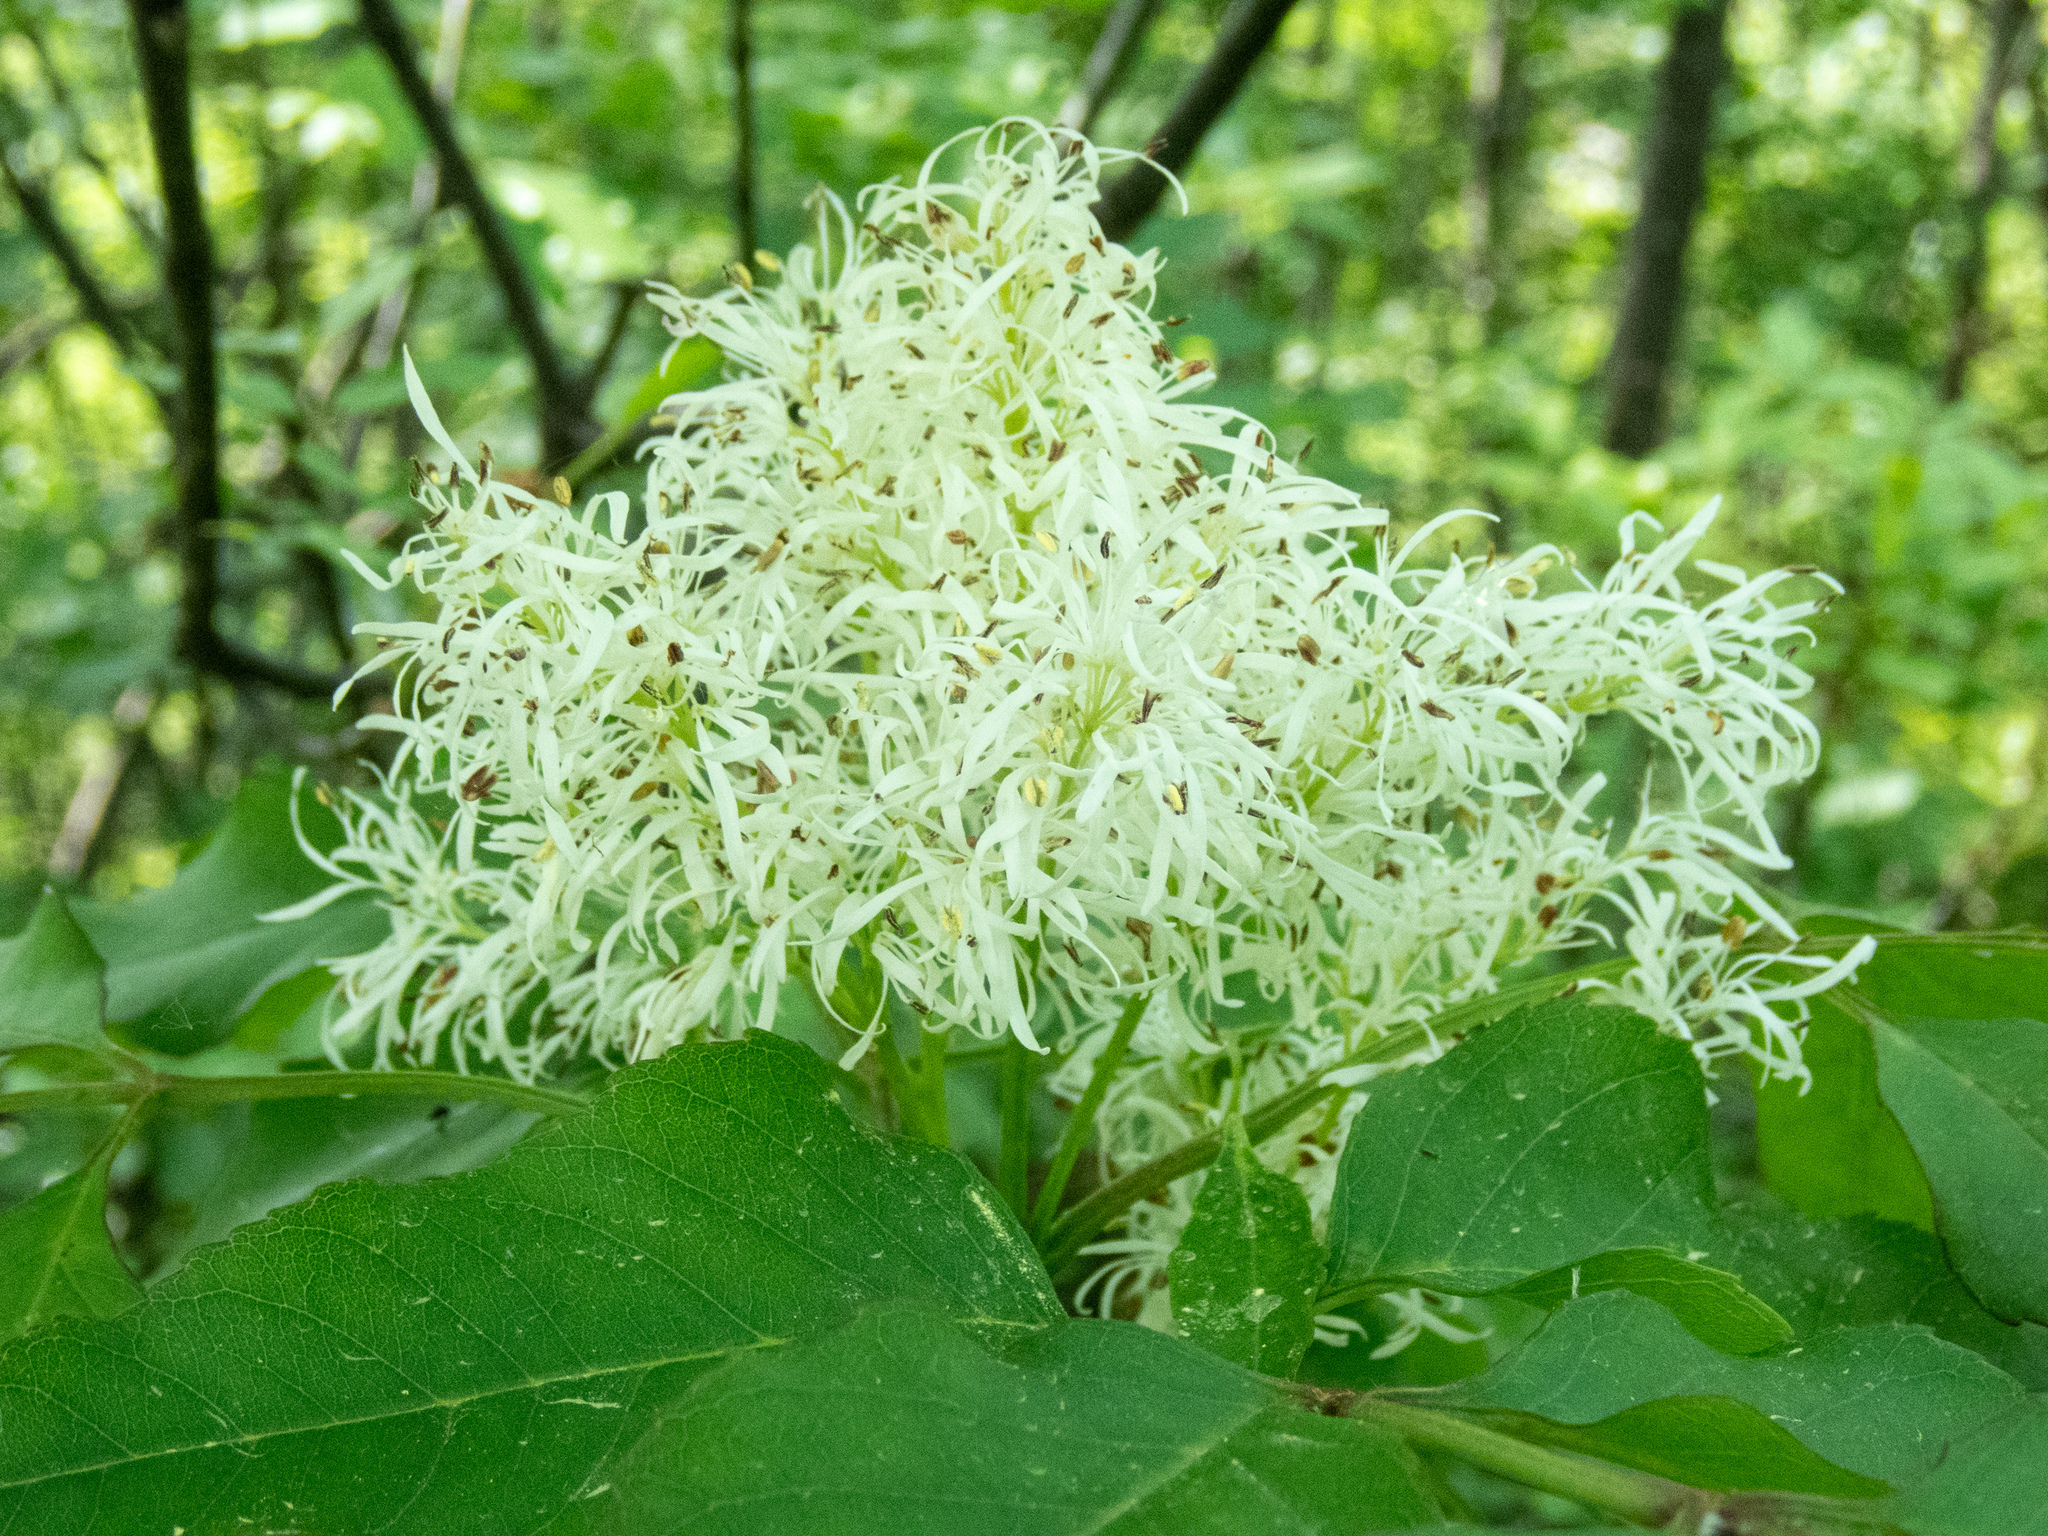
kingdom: Plantae
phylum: Tracheophyta
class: Magnoliopsida
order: Lamiales
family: Oleaceae
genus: Fraxinus
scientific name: Fraxinus ornus
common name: Manna ash
